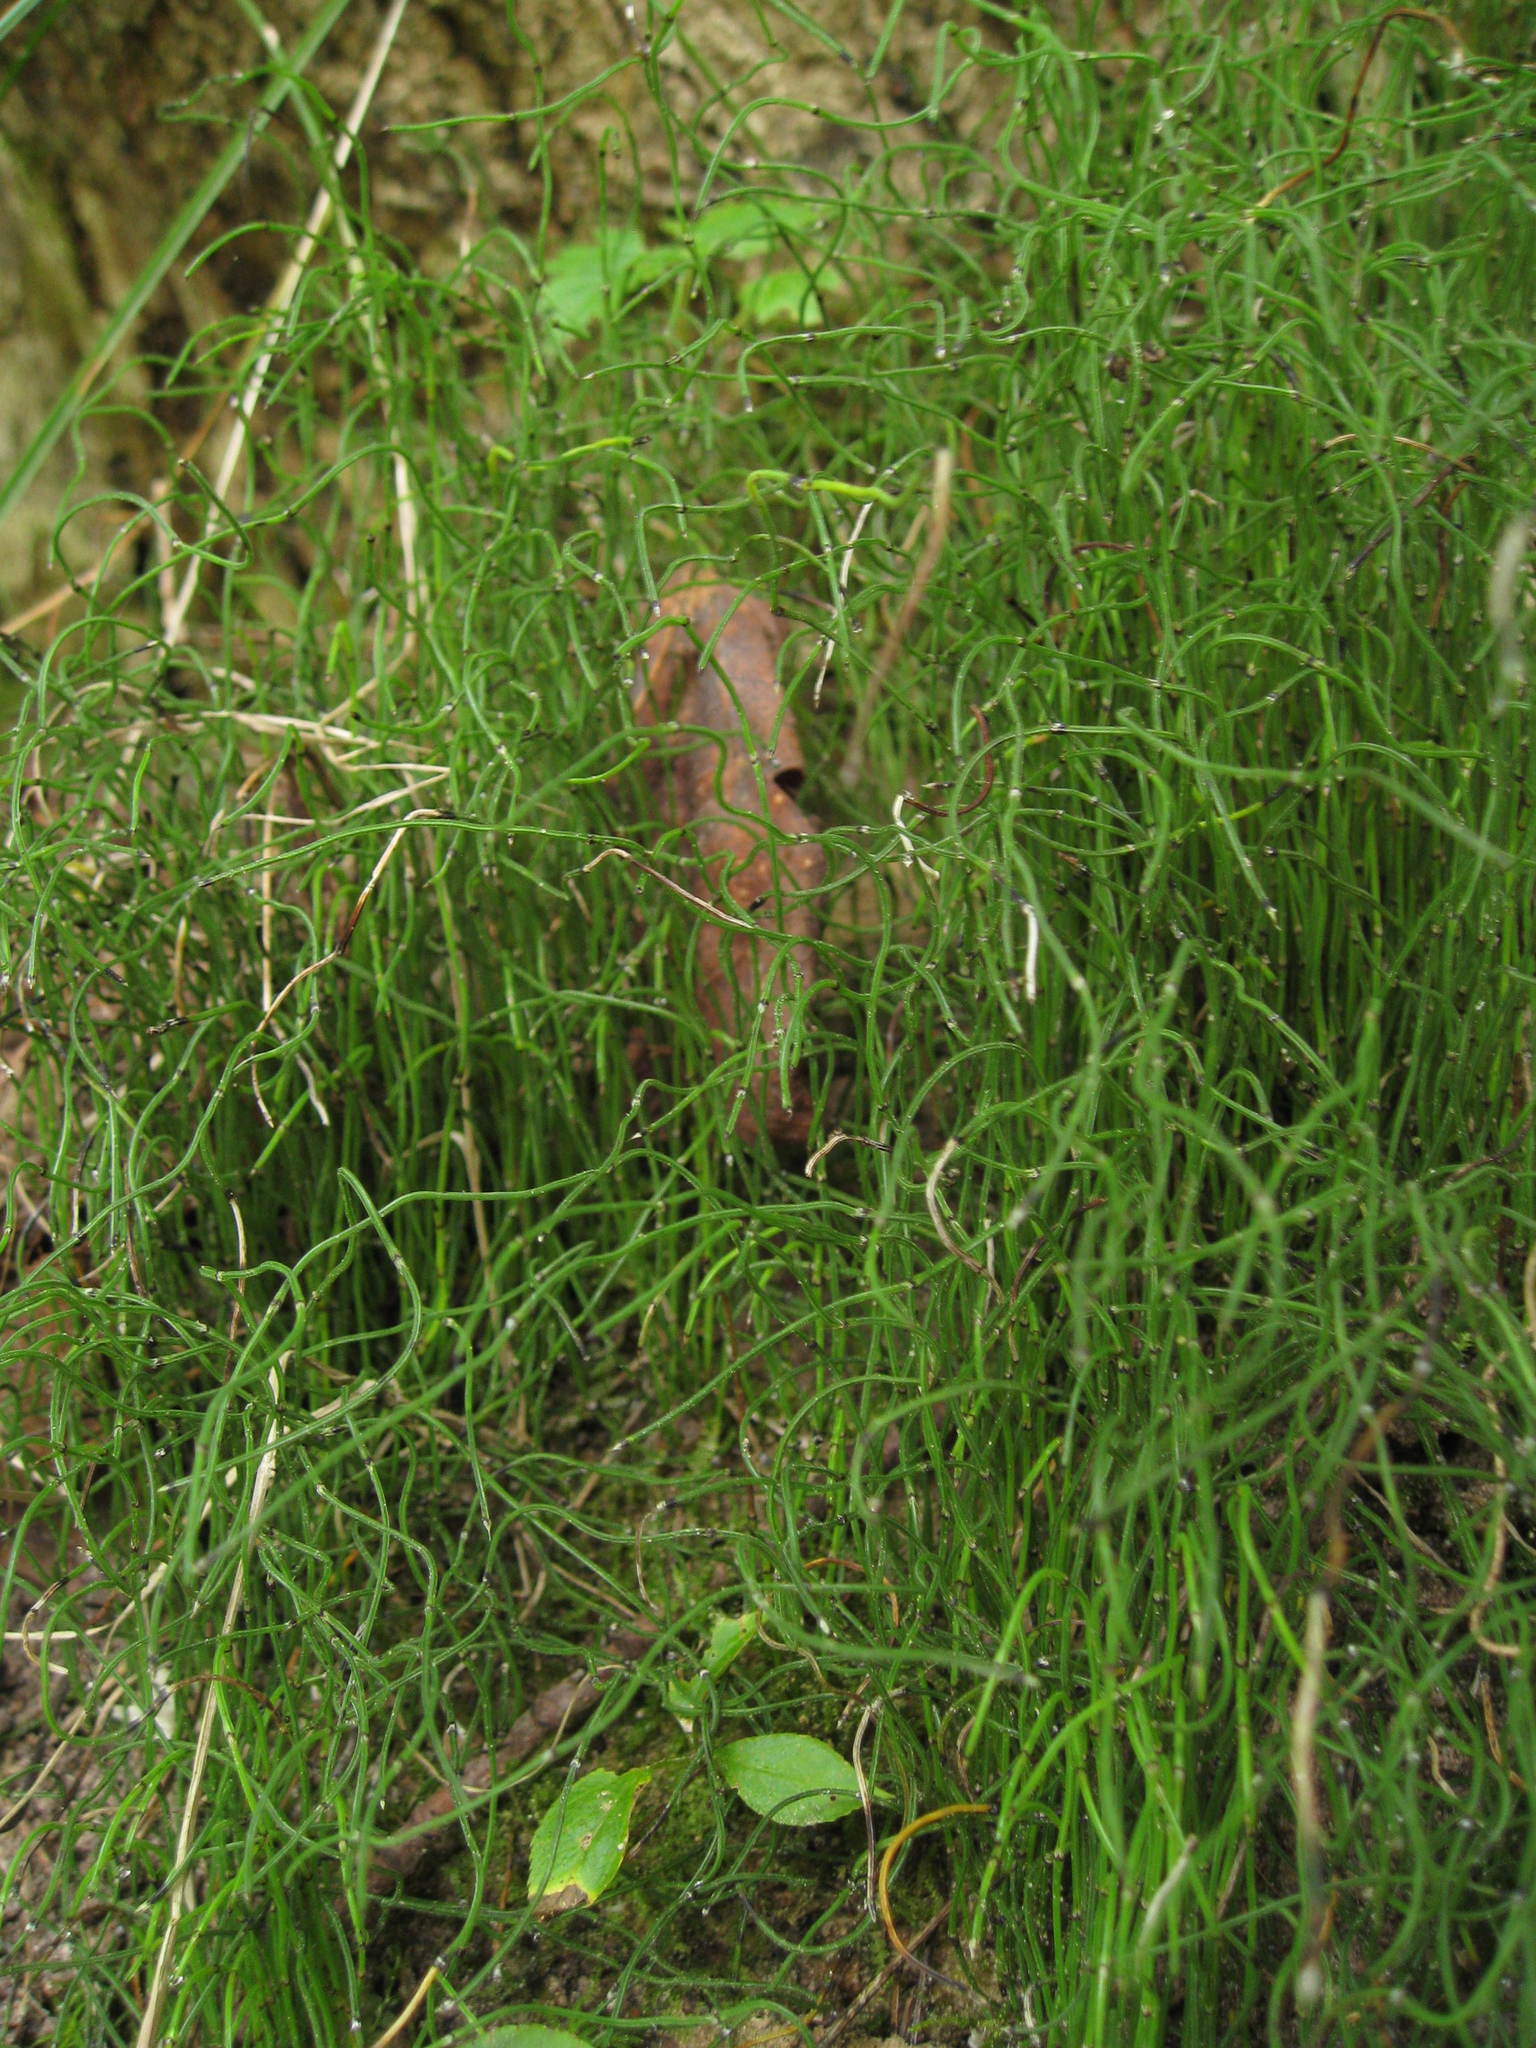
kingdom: Plantae
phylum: Tracheophyta
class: Polypodiopsida
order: Equisetales
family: Equisetaceae
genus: Equisetum
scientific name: Equisetum scirpoides
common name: Delicate horsetail
